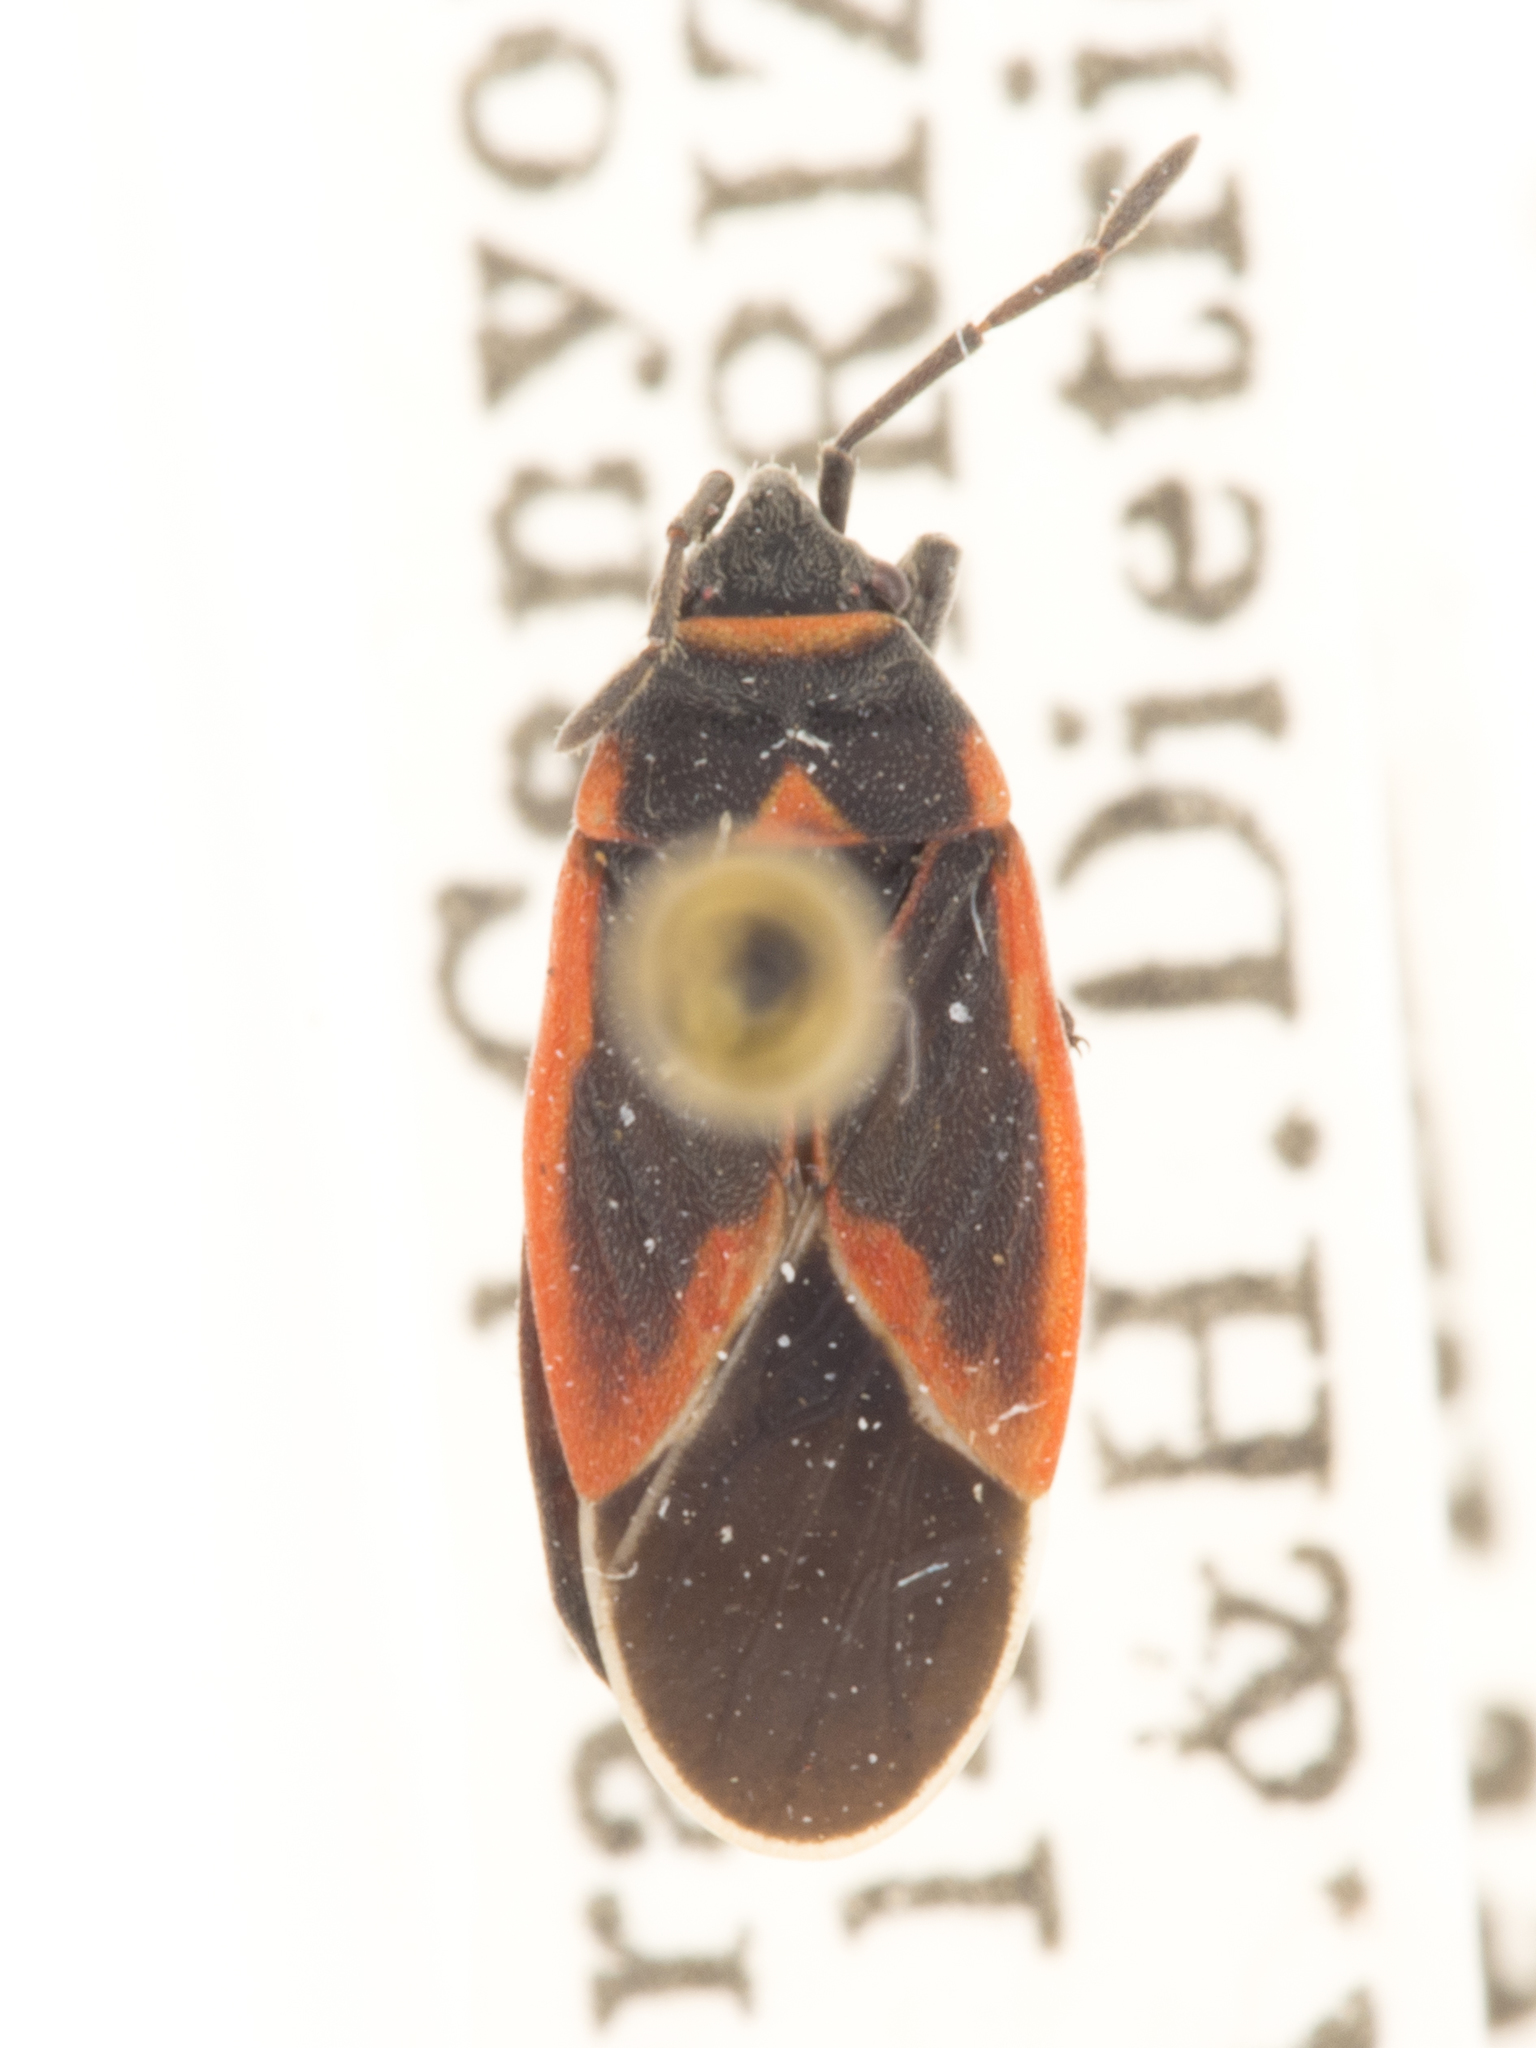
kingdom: Animalia
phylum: Arthropoda
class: Insecta
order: Hemiptera
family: Lygaeidae
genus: Melacoryphus
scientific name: Melacoryphus admirabilis
